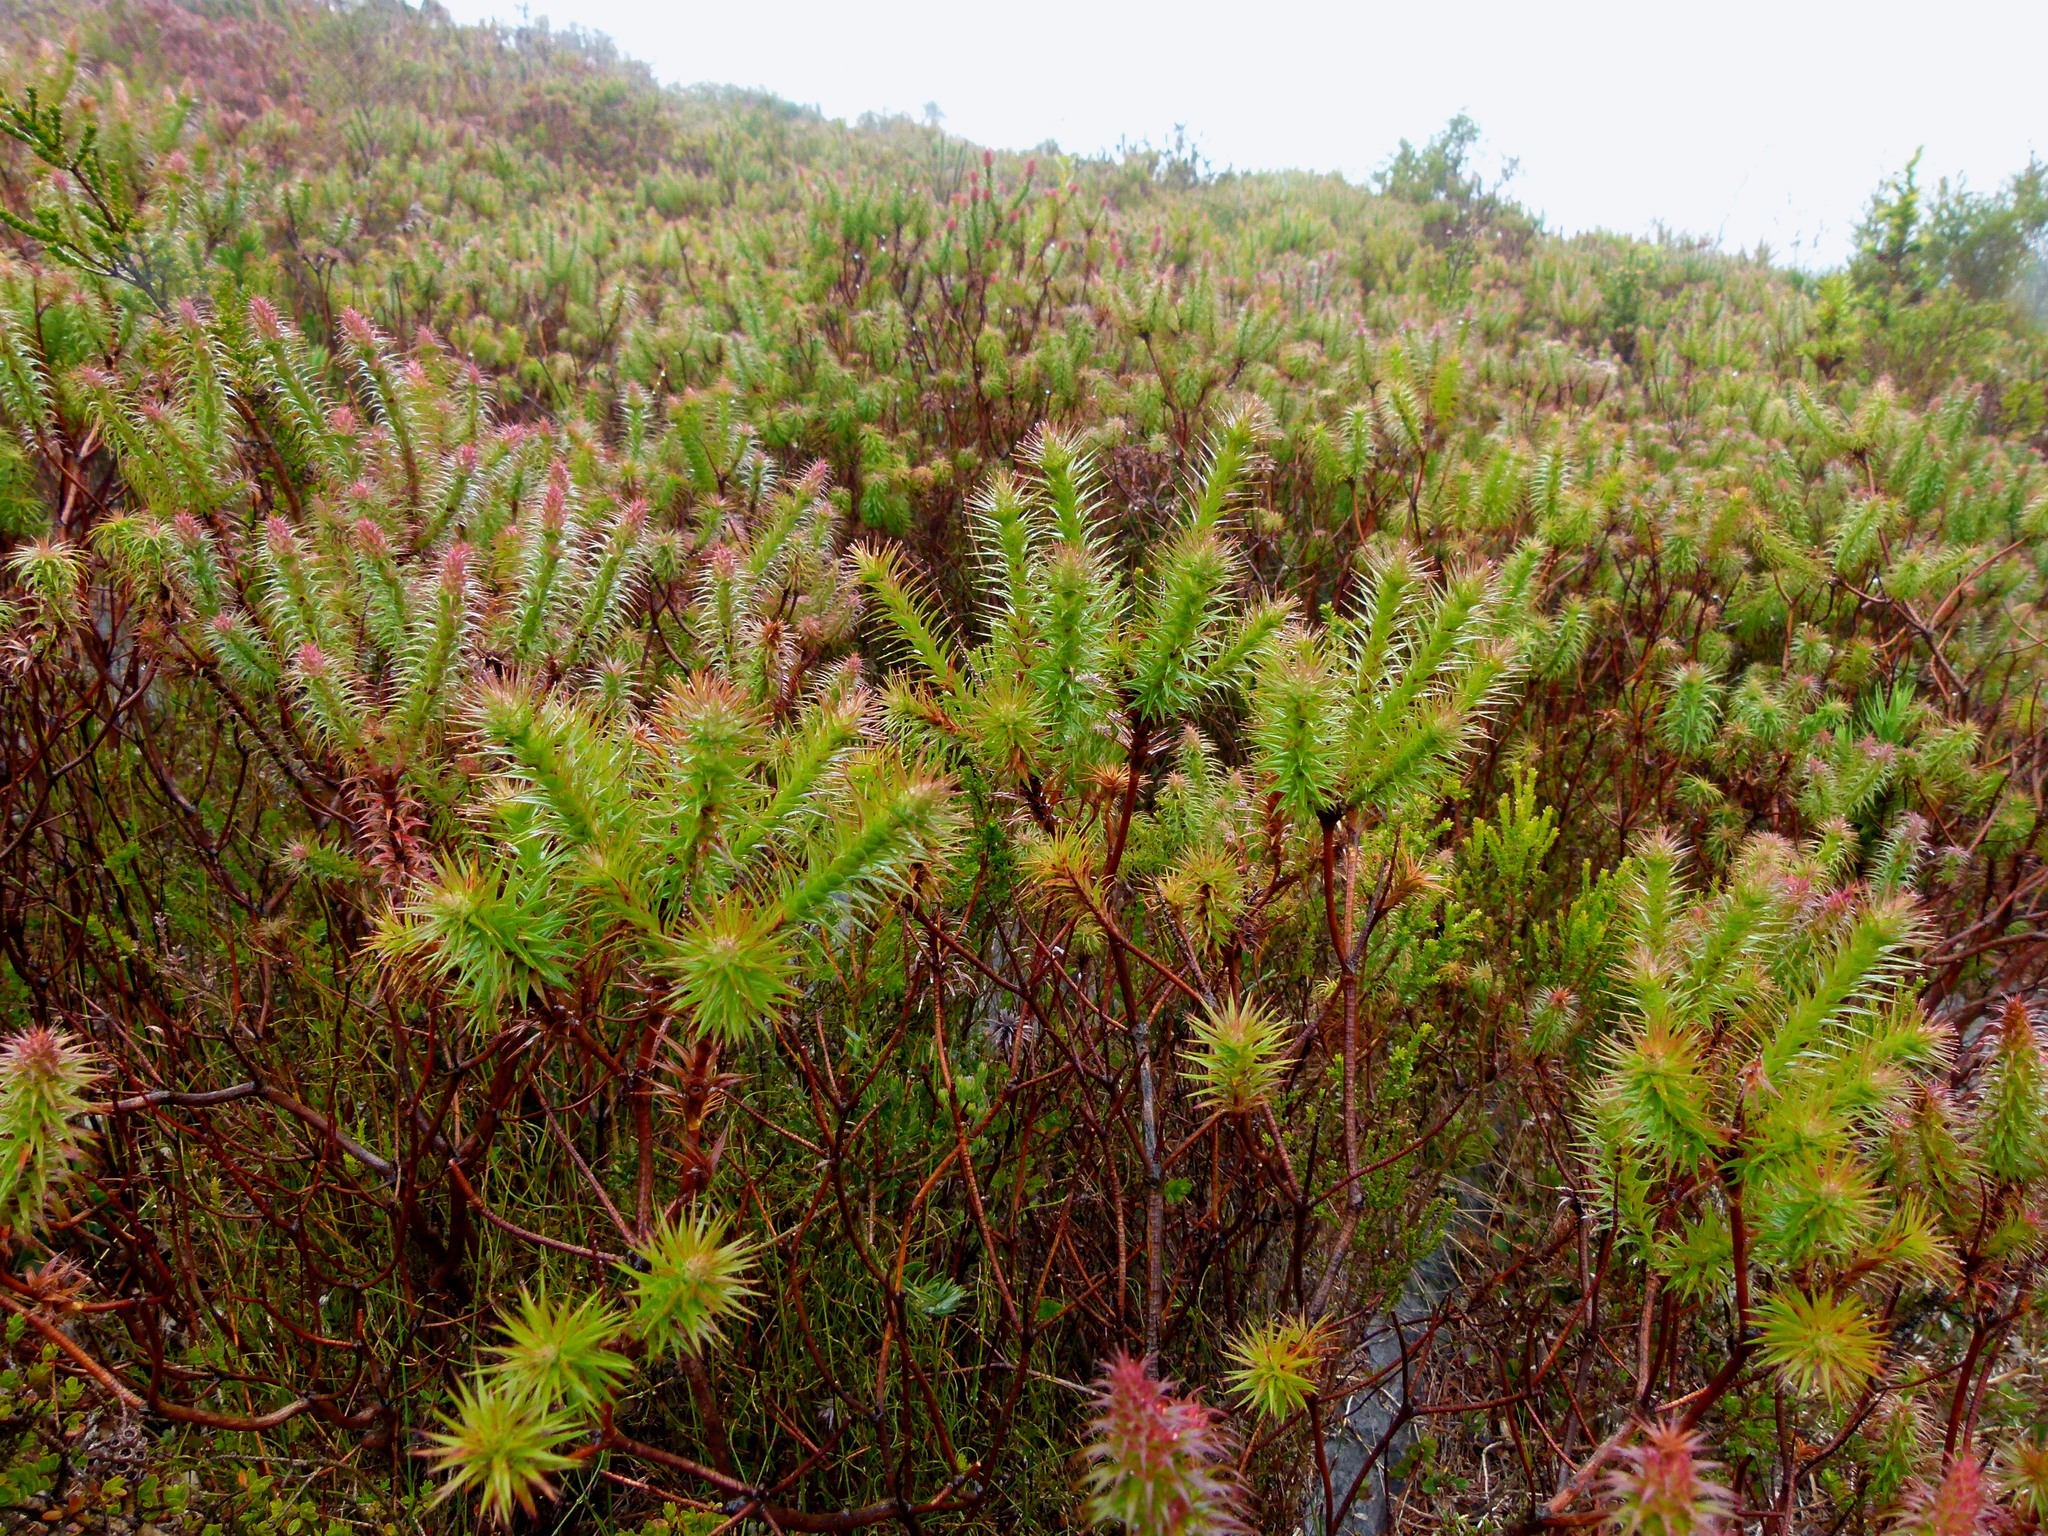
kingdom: Plantae
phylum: Tracheophyta
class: Magnoliopsida
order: Ericales
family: Ericaceae
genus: Andersonia
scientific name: Andersonia axilliflora
